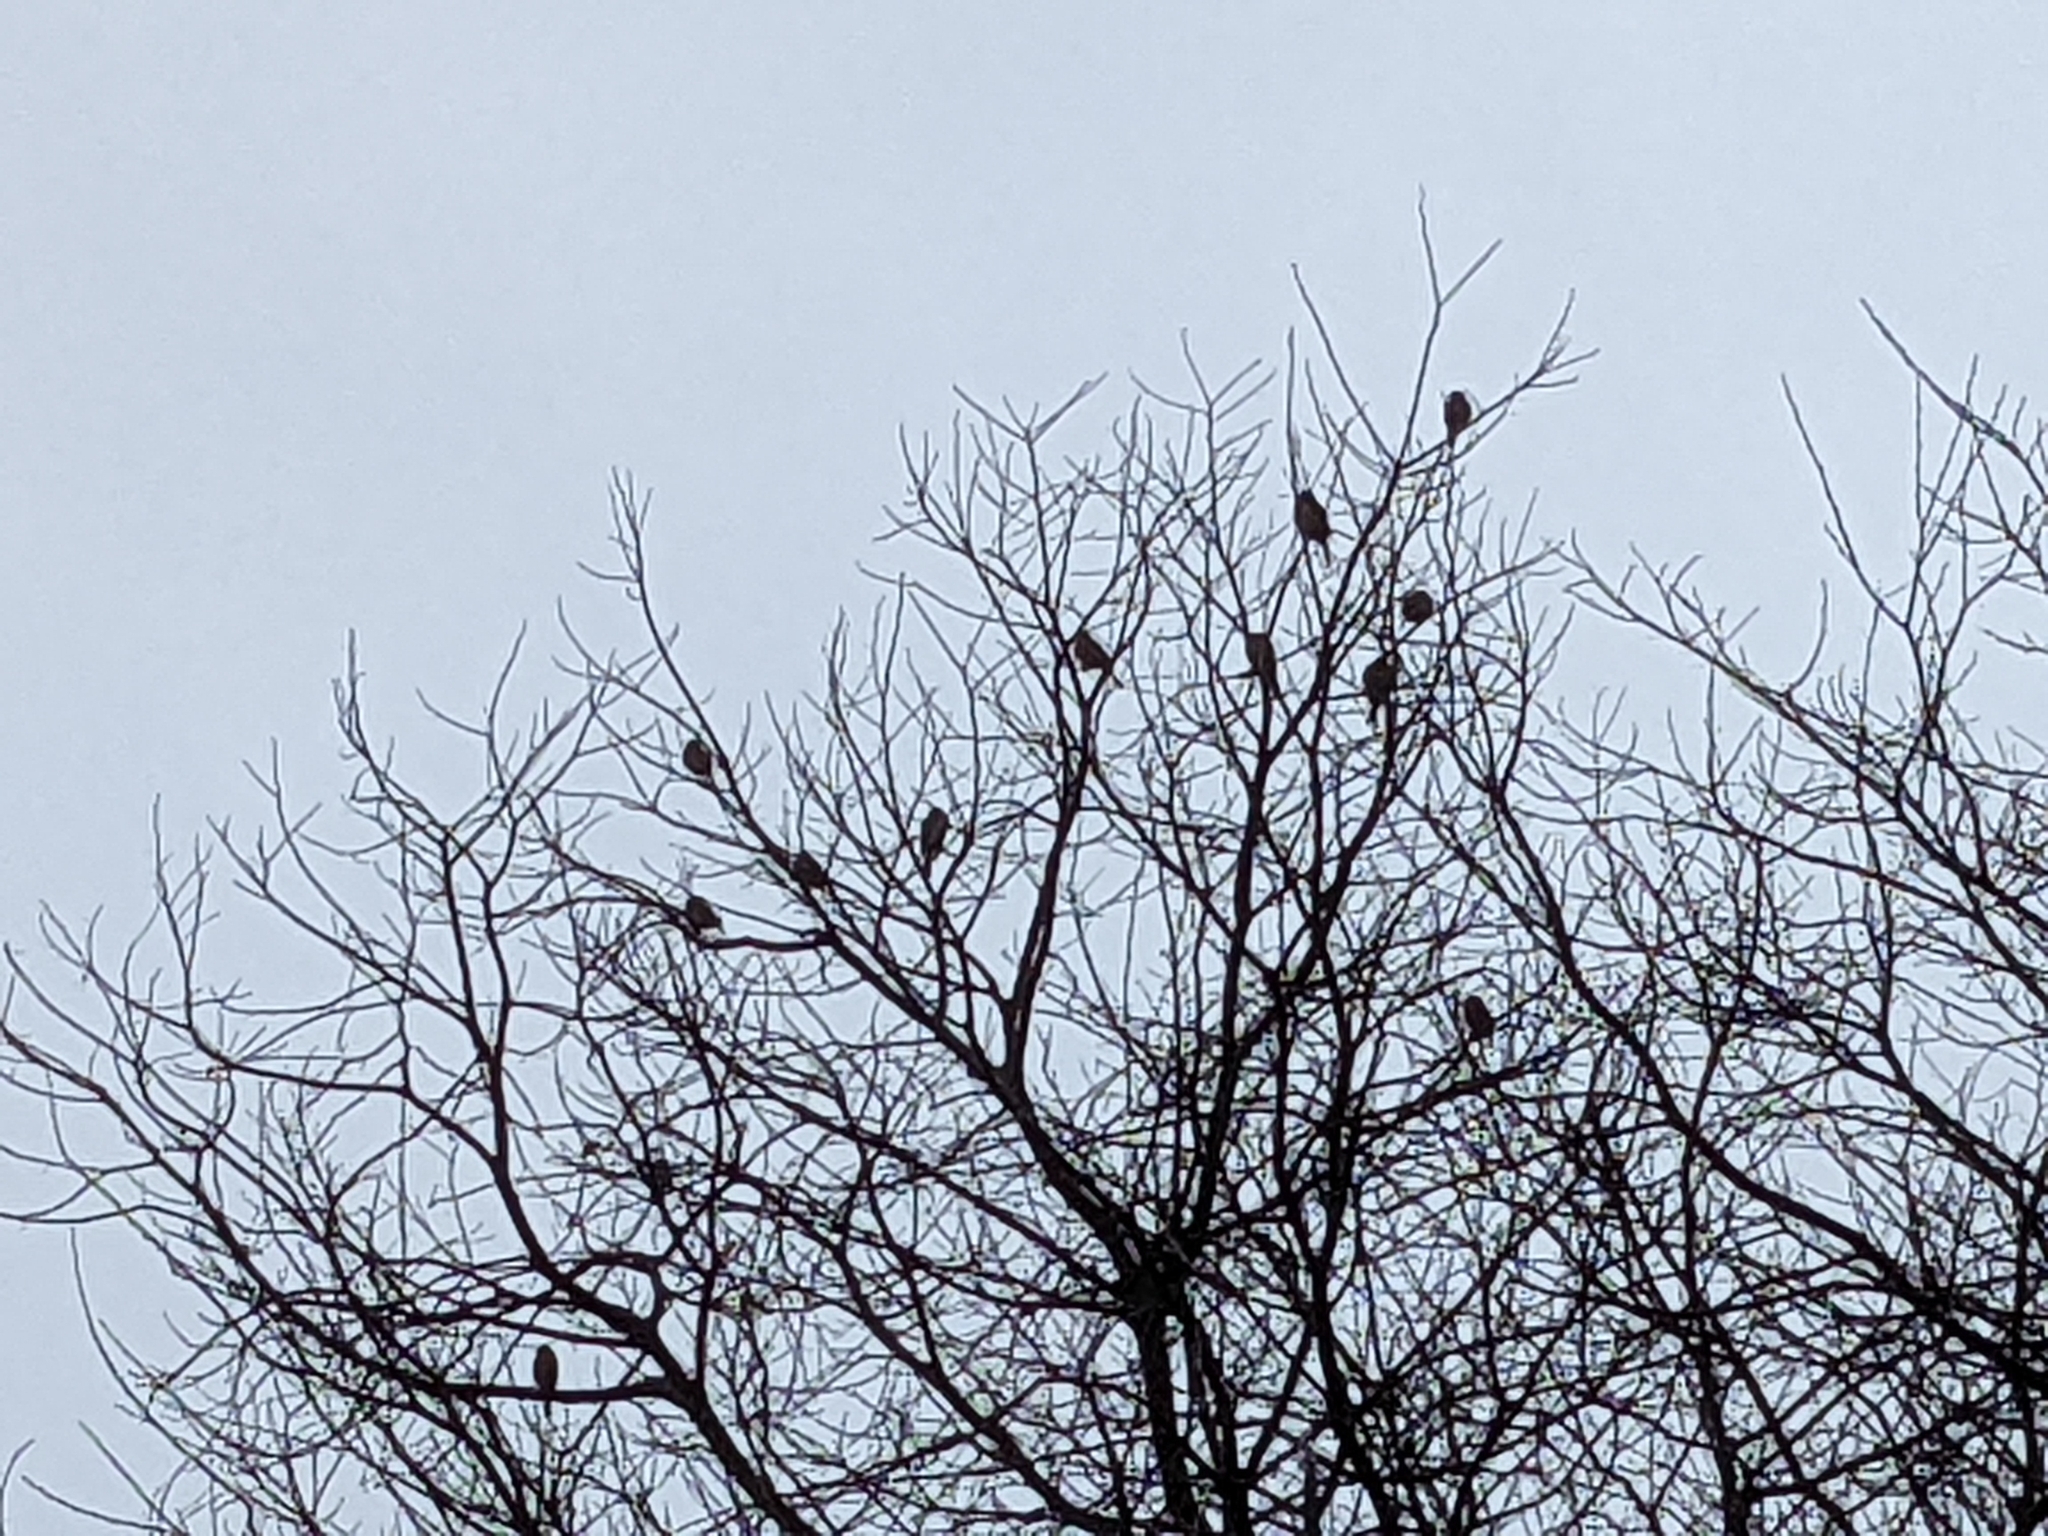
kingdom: Animalia
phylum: Chordata
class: Aves
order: Passeriformes
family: Fringillidae
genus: Haemorhous
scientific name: Haemorhous mexicanus
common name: House finch
